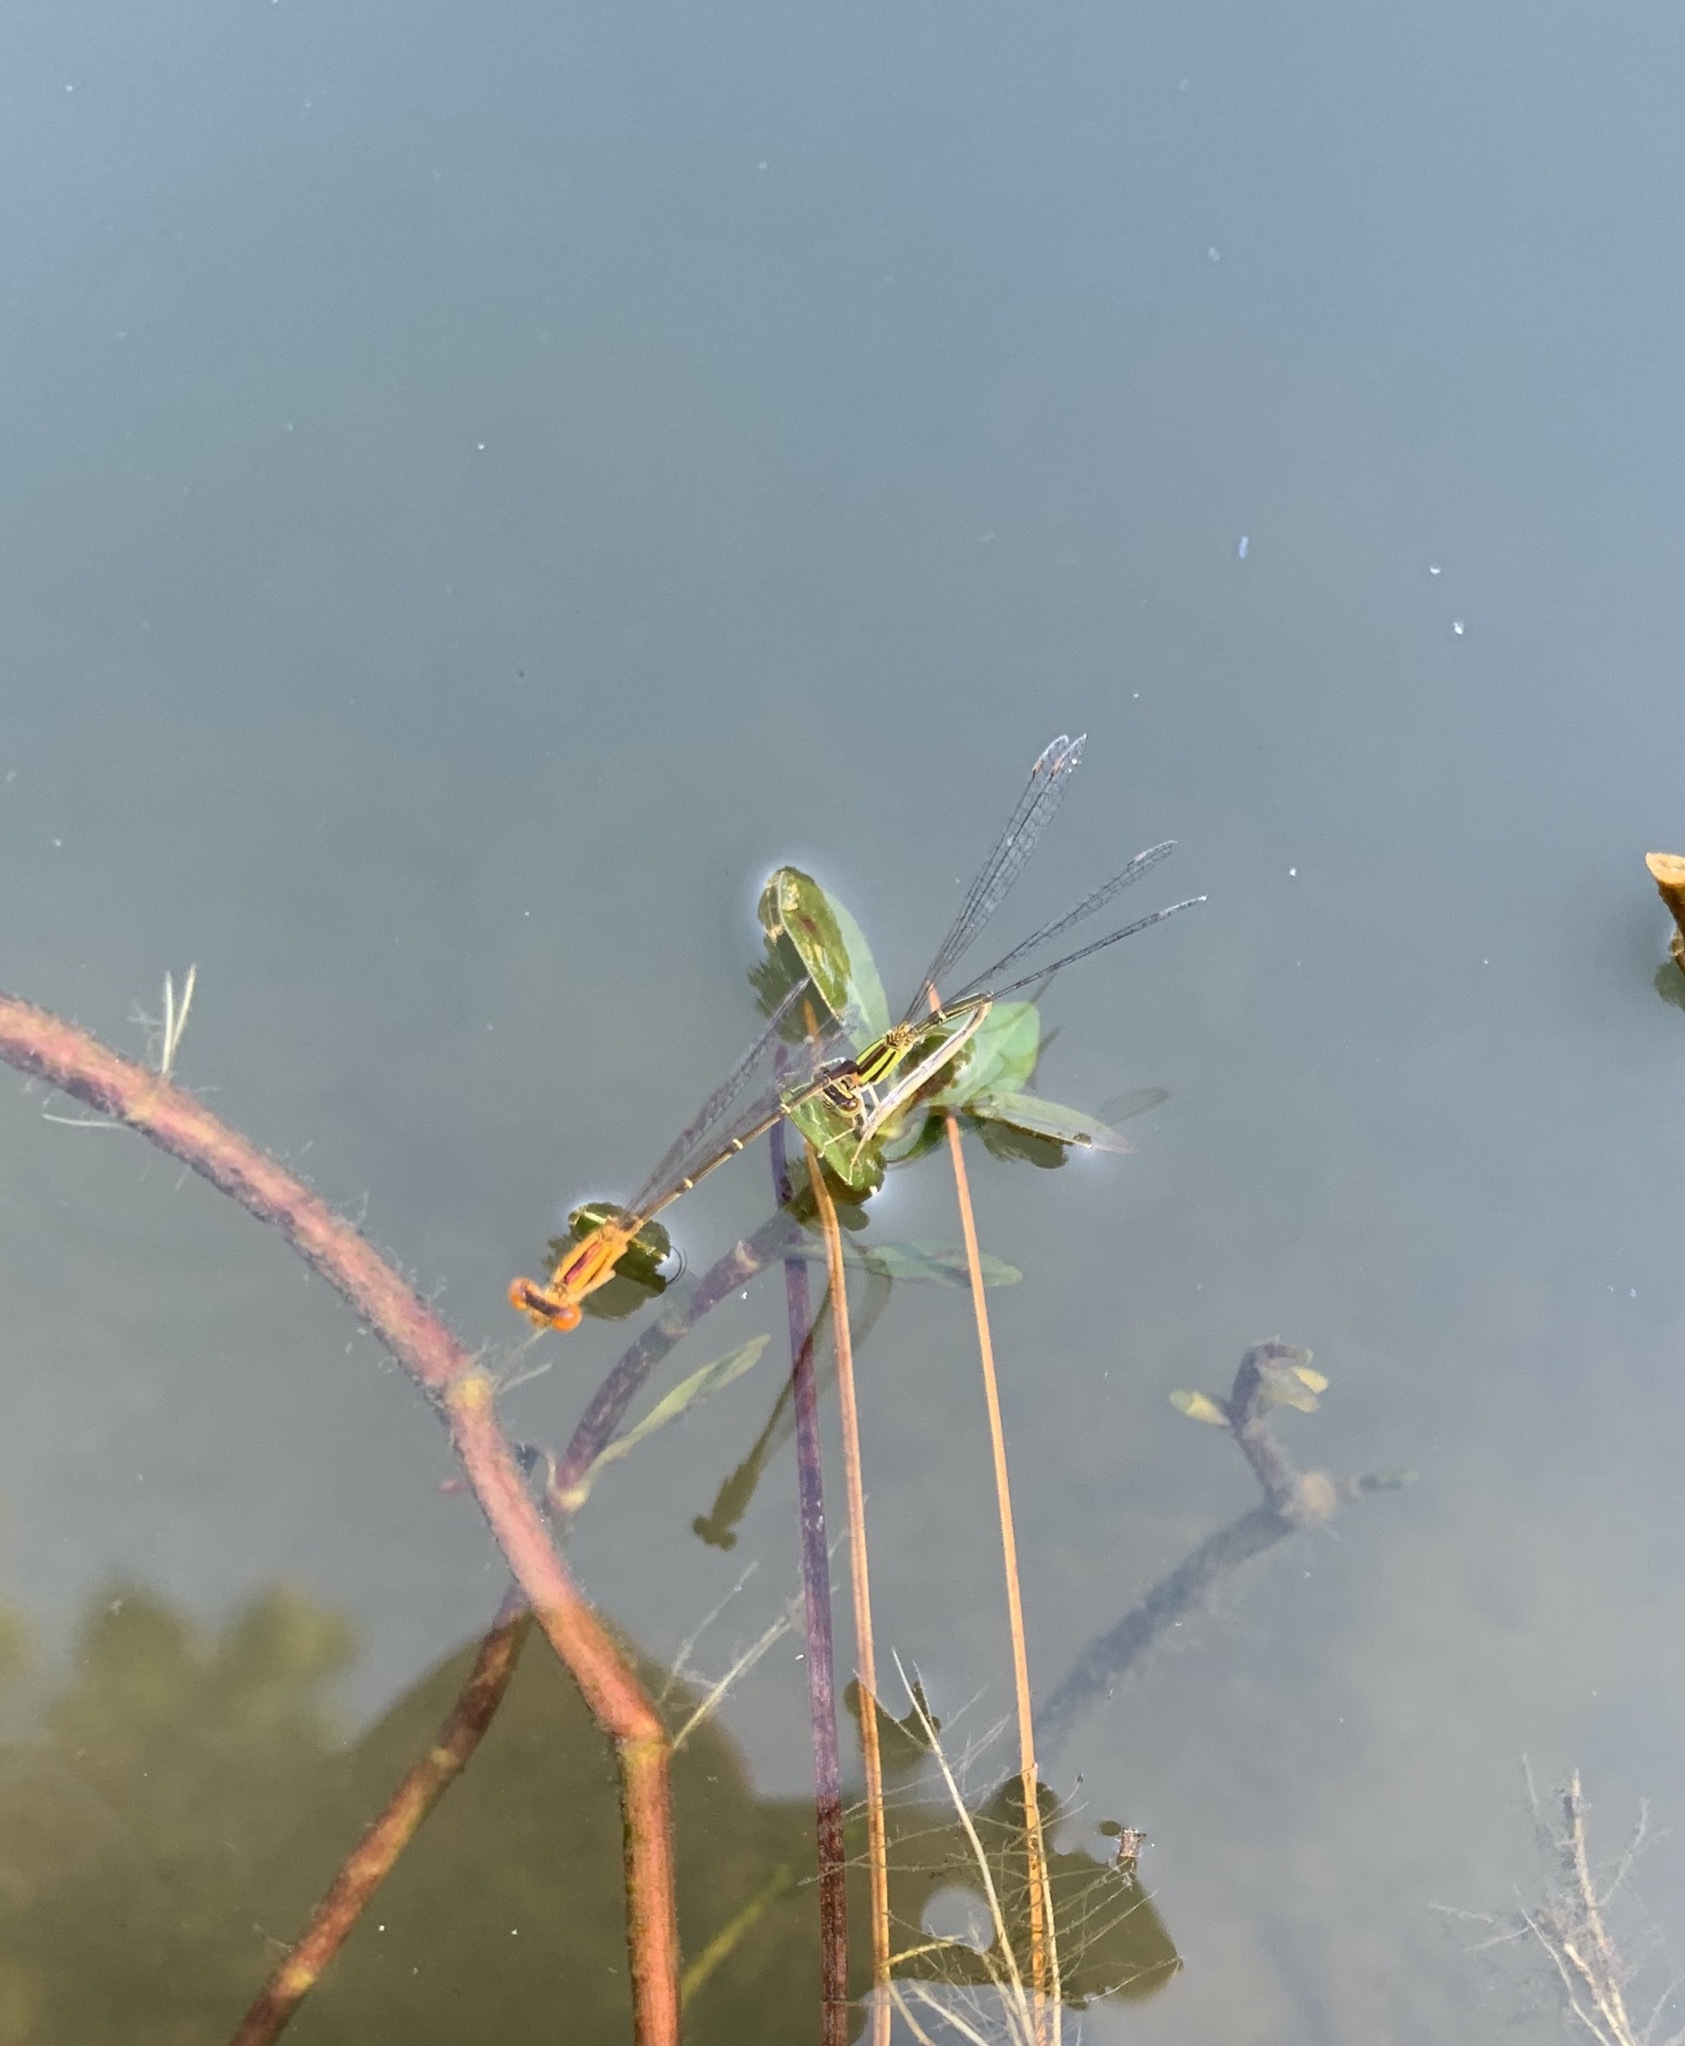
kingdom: Animalia
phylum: Arthropoda
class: Insecta
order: Odonata
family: Coenagrionidae
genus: Enallagma
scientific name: Enallagma signatum
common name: Orange bluet
